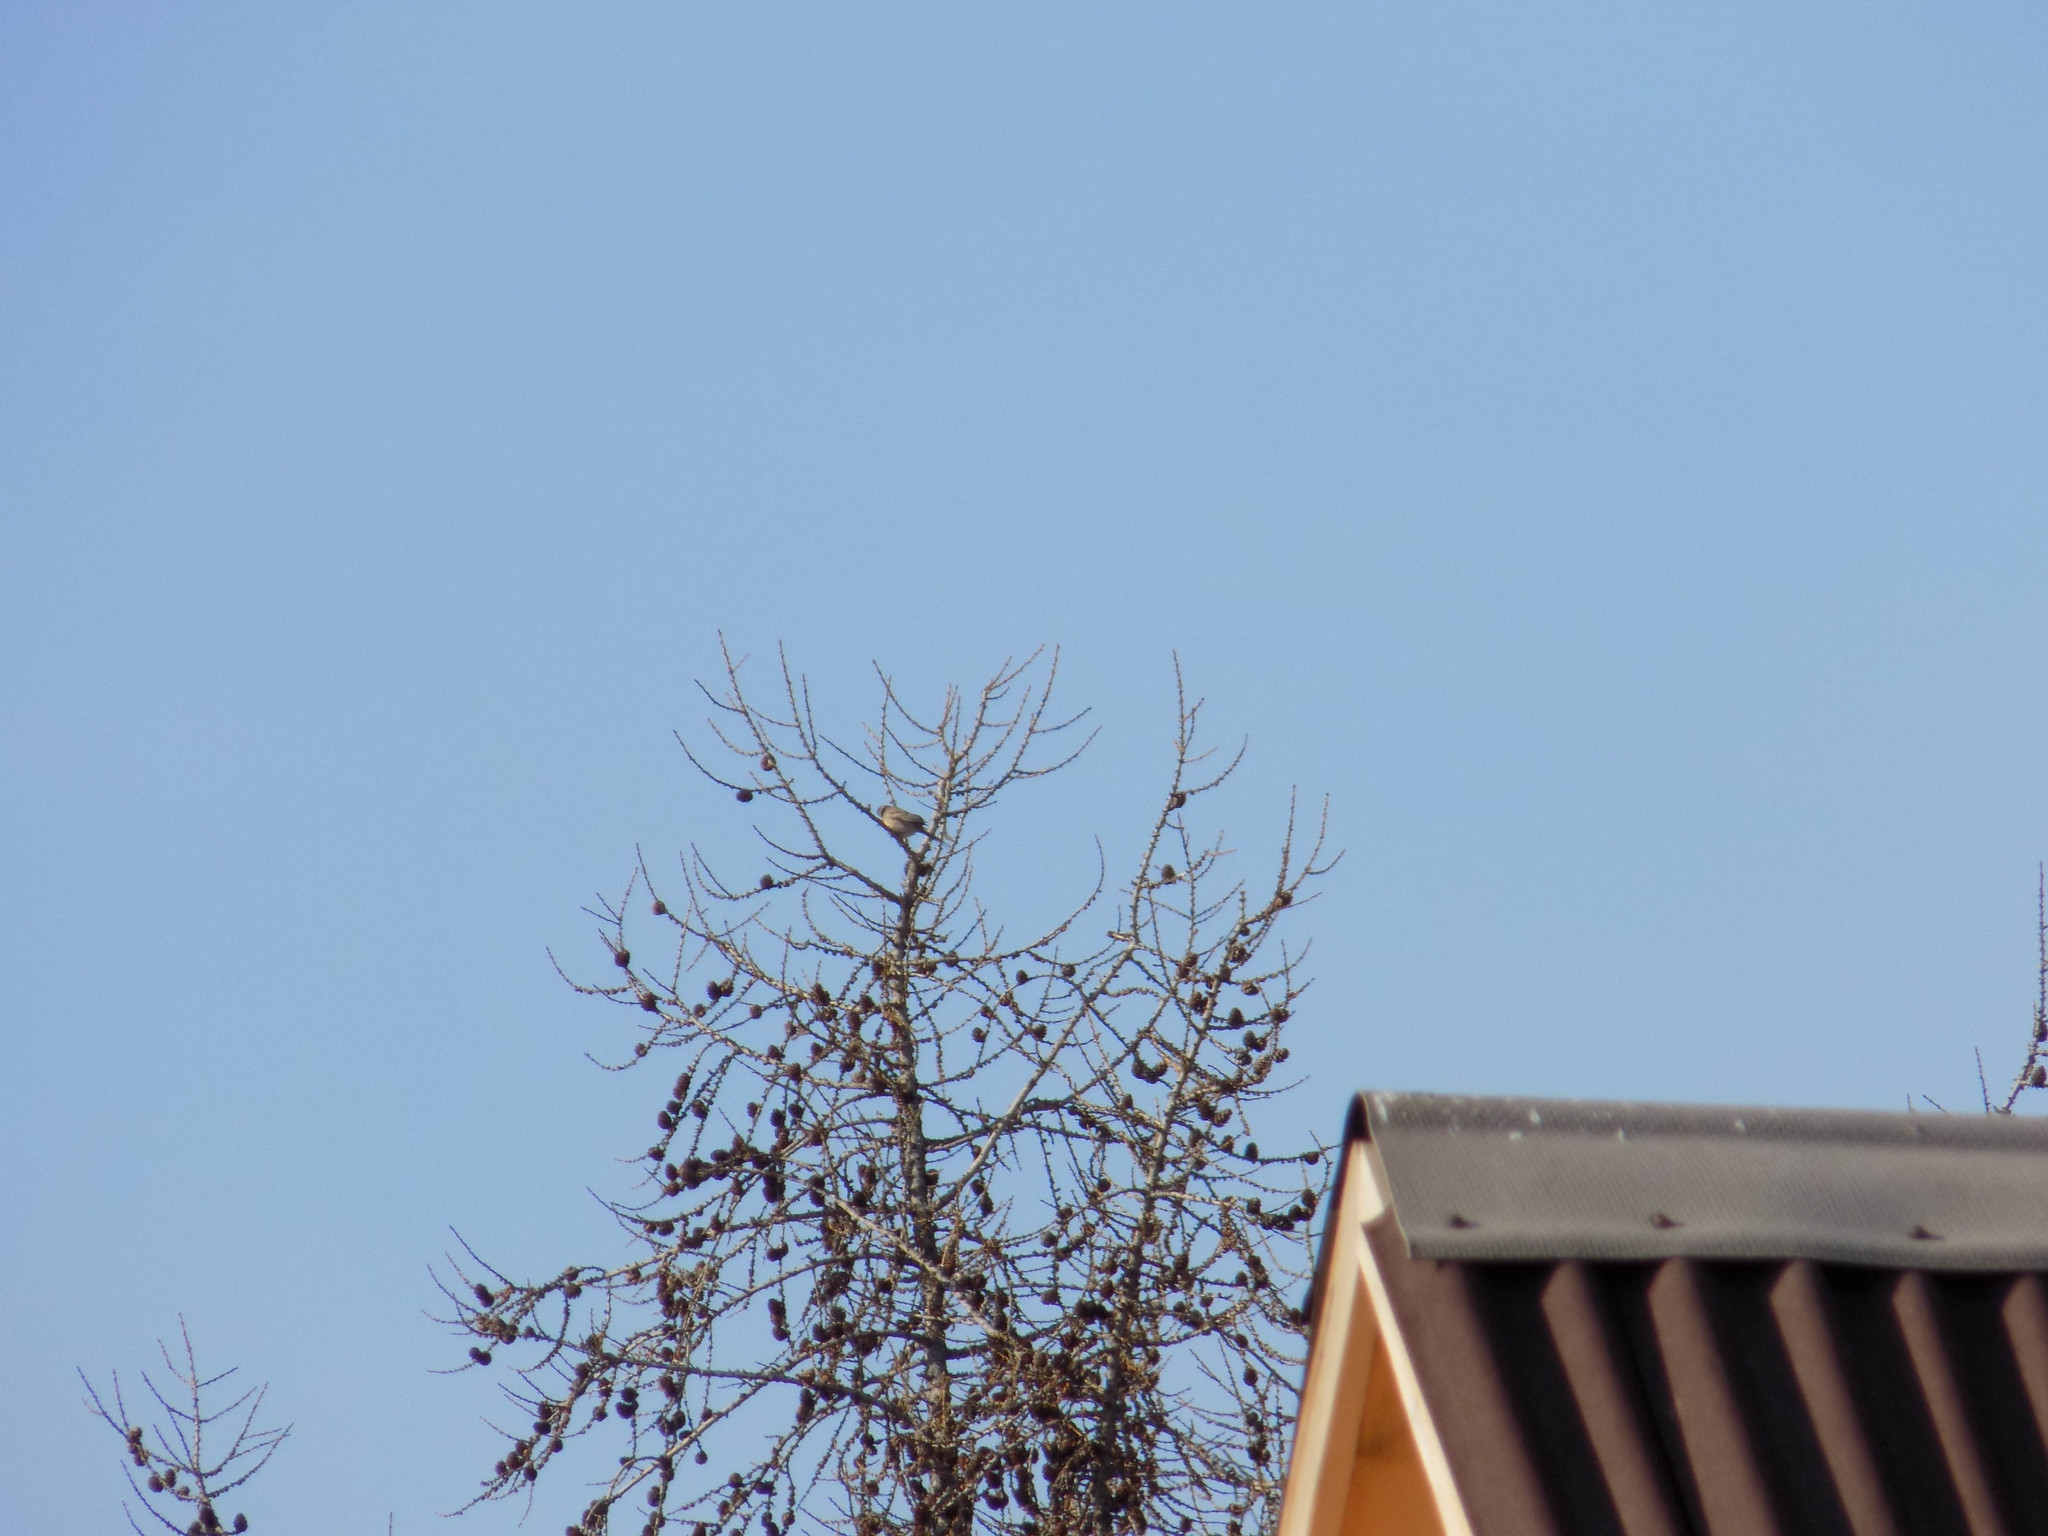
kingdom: Animalia
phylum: Chordata
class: Aves
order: Passeriformes
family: Emberizidae
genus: Emberiza
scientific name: Emberiza cioides
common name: Meadow bunting
